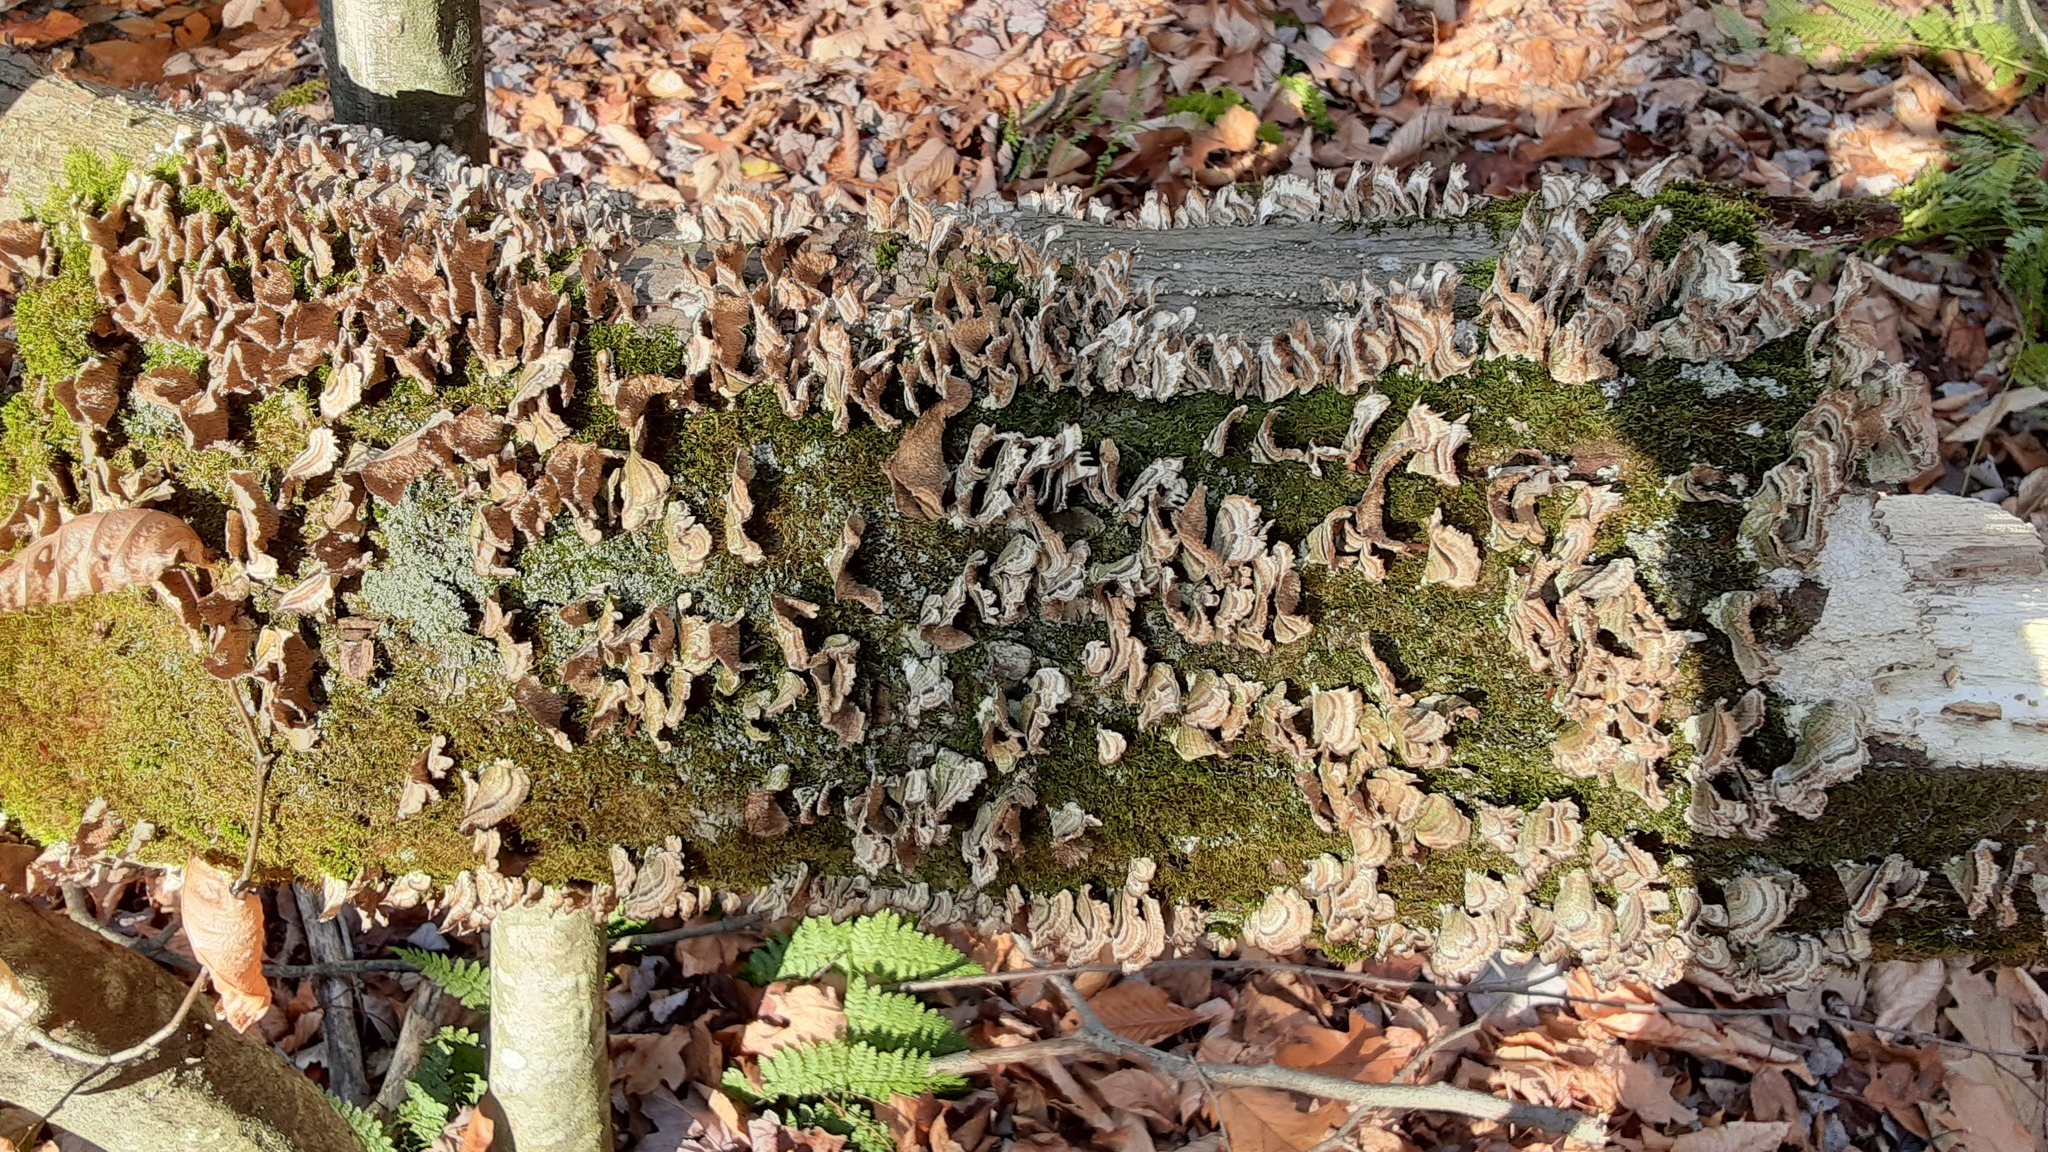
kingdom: Fungi
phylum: Basidiomycota
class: Agaricomycetes
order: Hymenochaetales
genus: Trichaptum
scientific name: Trichaptum biforme
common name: Violet-toothed polypore
